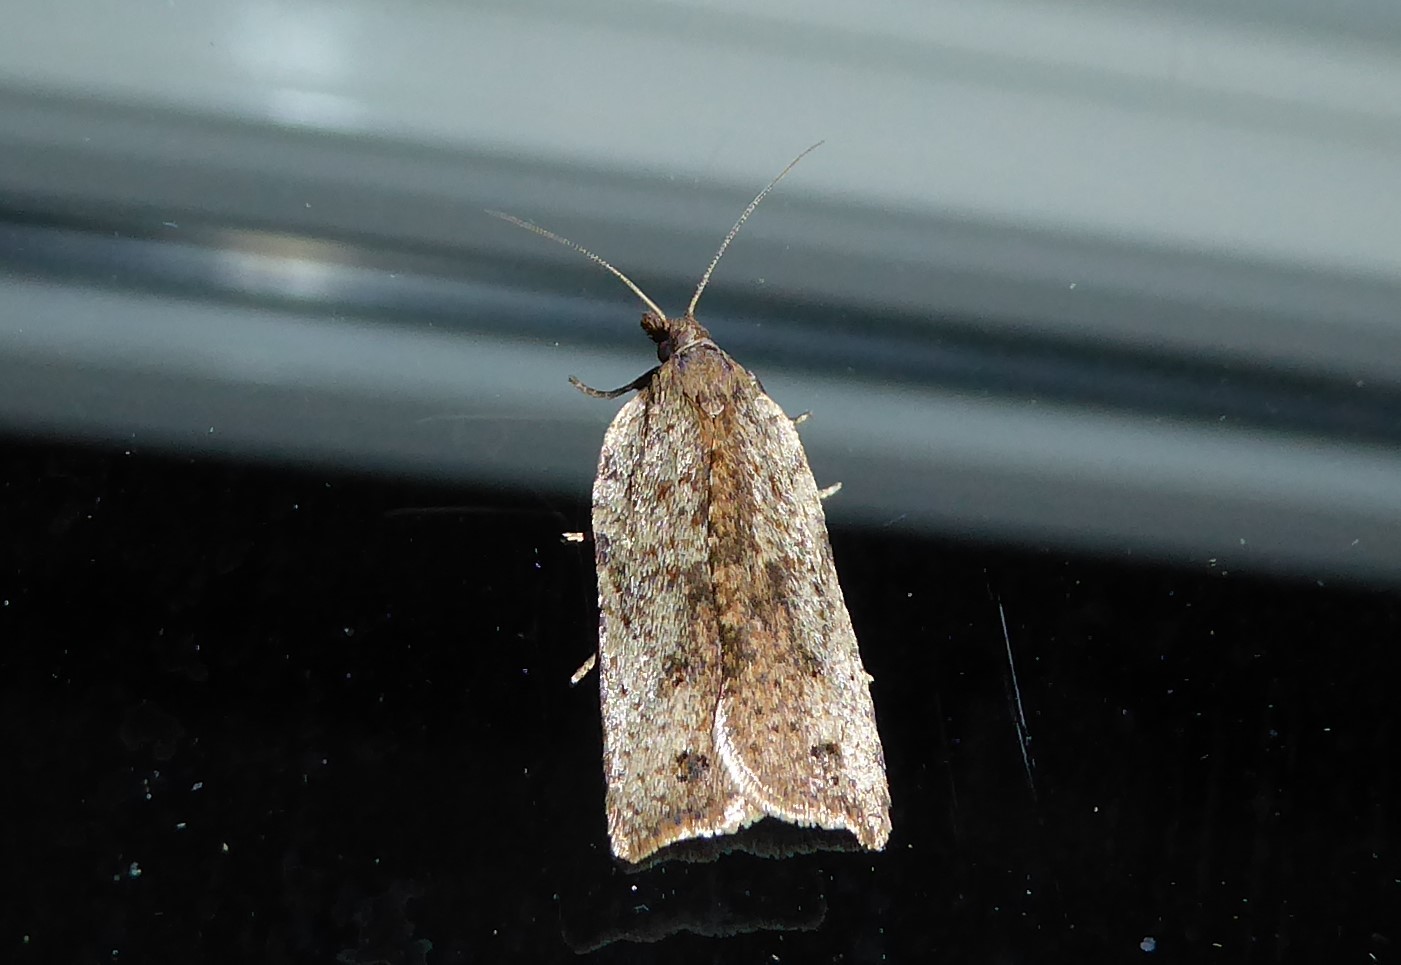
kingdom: Animalia
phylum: Arthropoda
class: Insecta
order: Lepidoptera
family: Tortricidae
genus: Planotortrix
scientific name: Planotortrix notophaea
